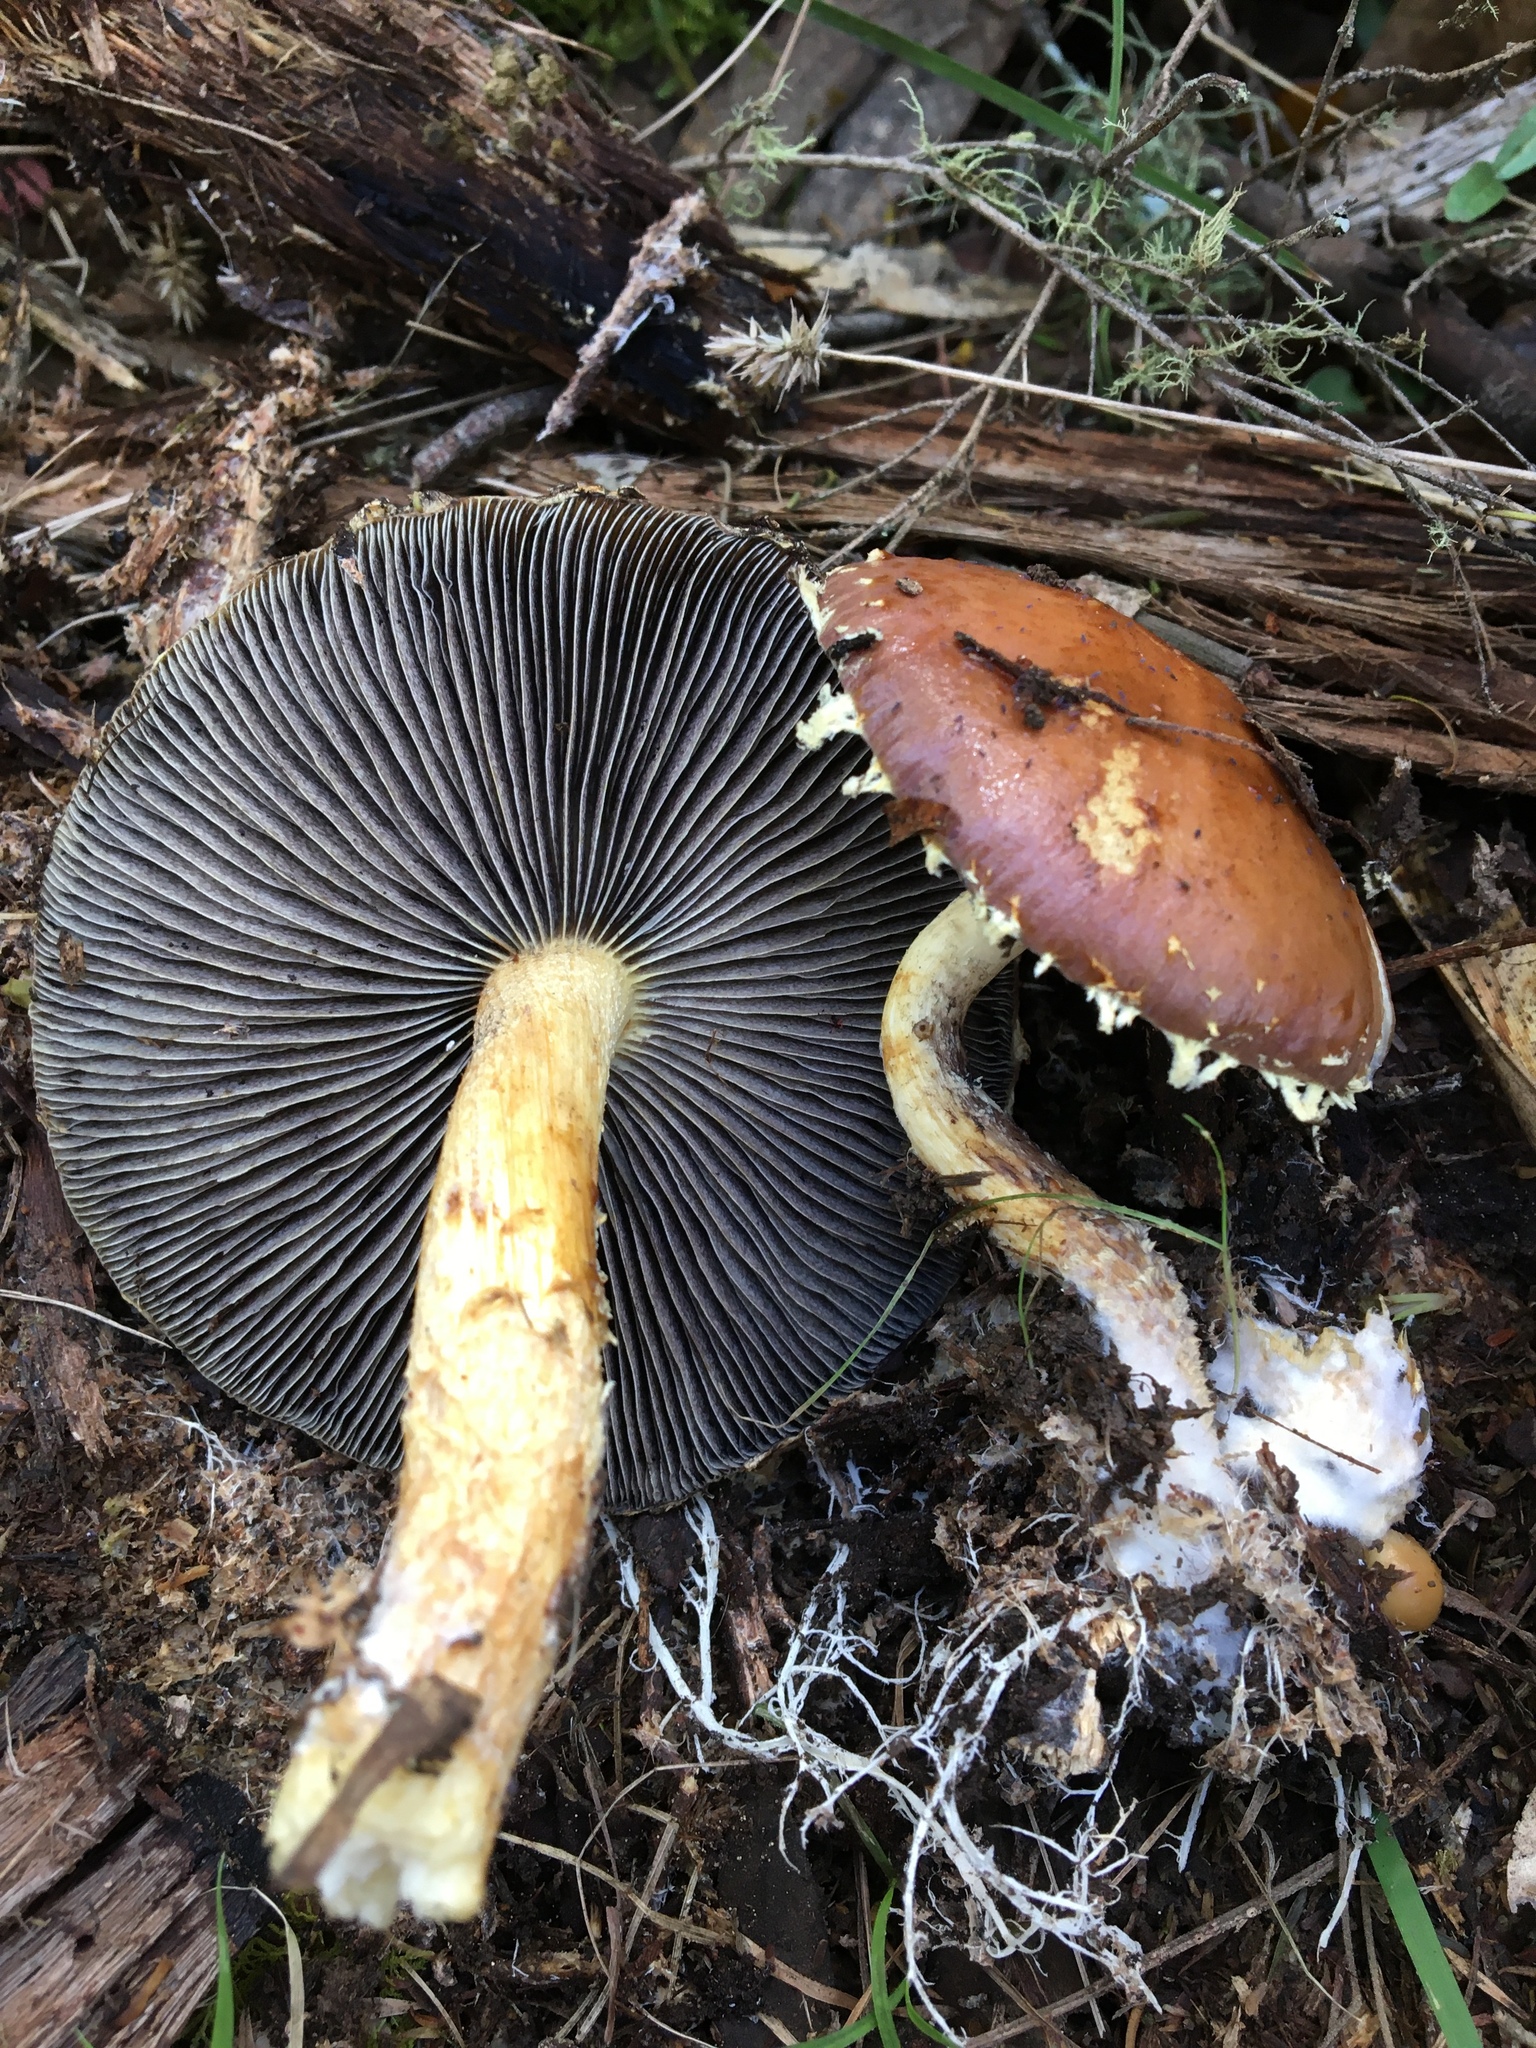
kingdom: Fungi
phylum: Basidiomycota
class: Agaricomycetes
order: Agaricales
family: Hymenogastraceae
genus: Psilocybe
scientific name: Psilocybe formosa
